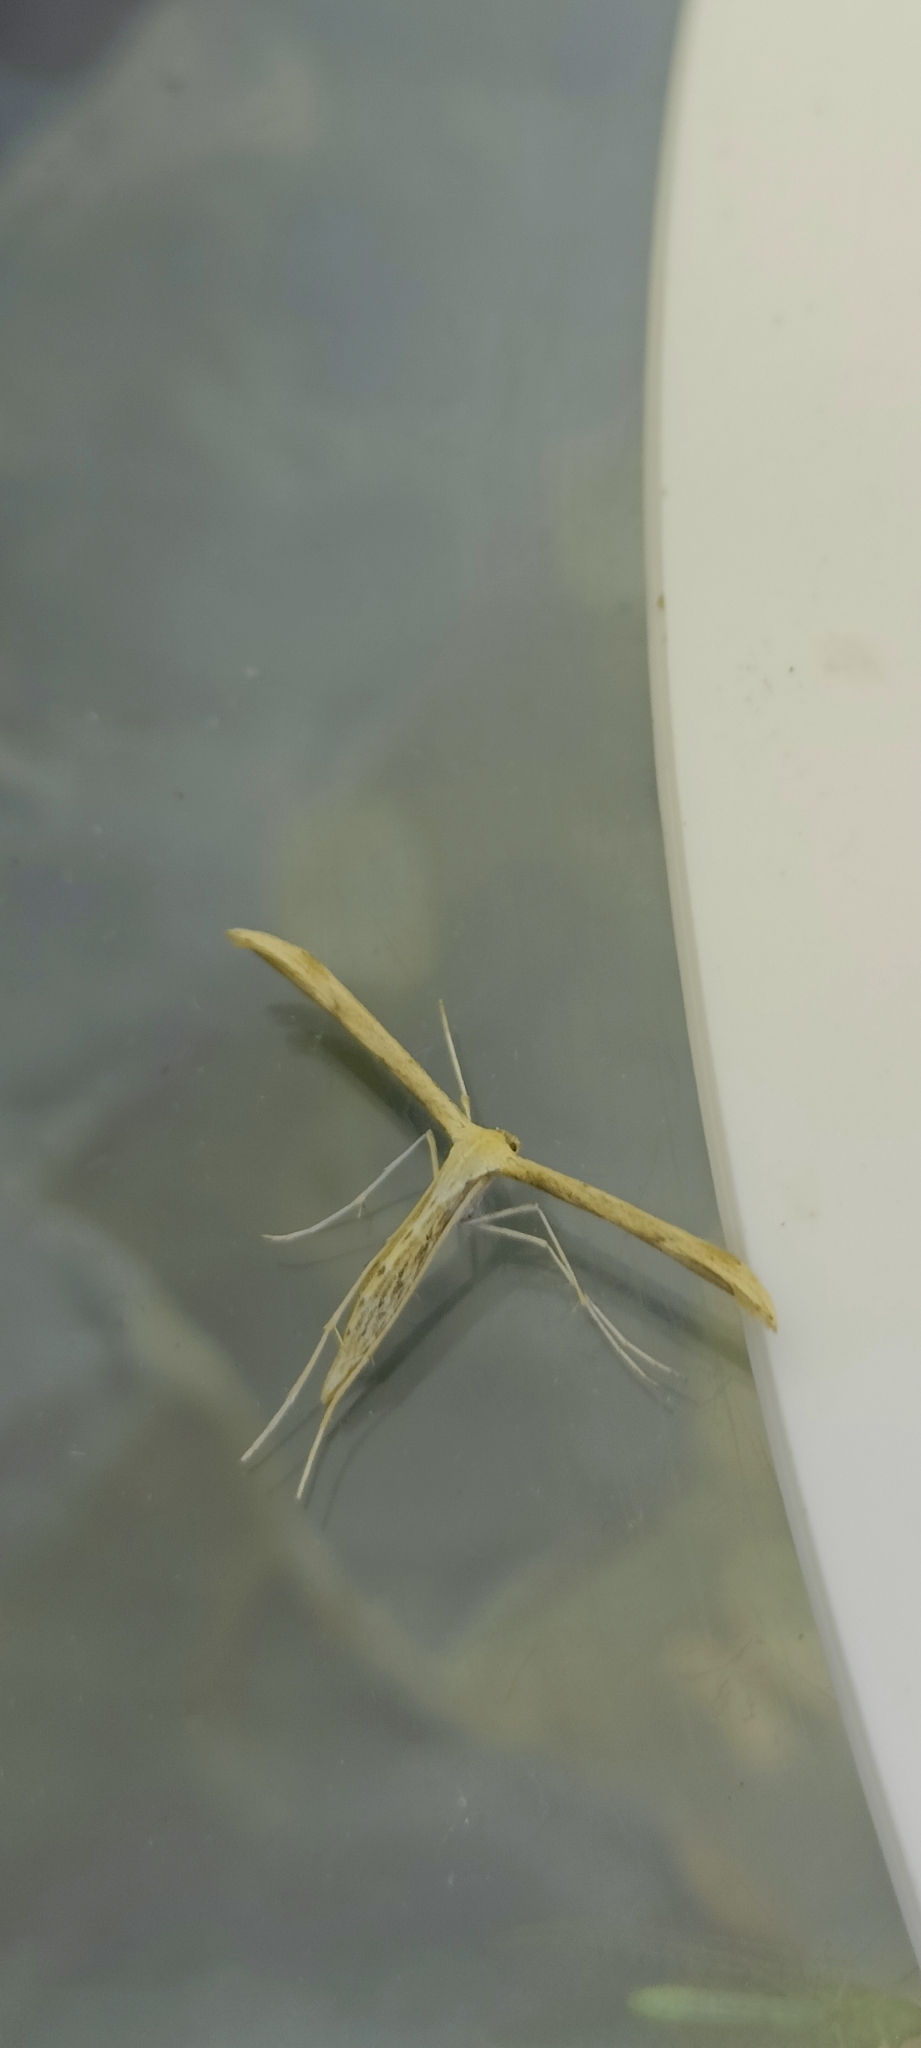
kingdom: Animalia
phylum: Arthropoda
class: Insecta
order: Lepidoptera
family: Pterophoridae
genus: Emmelina
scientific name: Emmelina monodactyla
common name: Common plume
